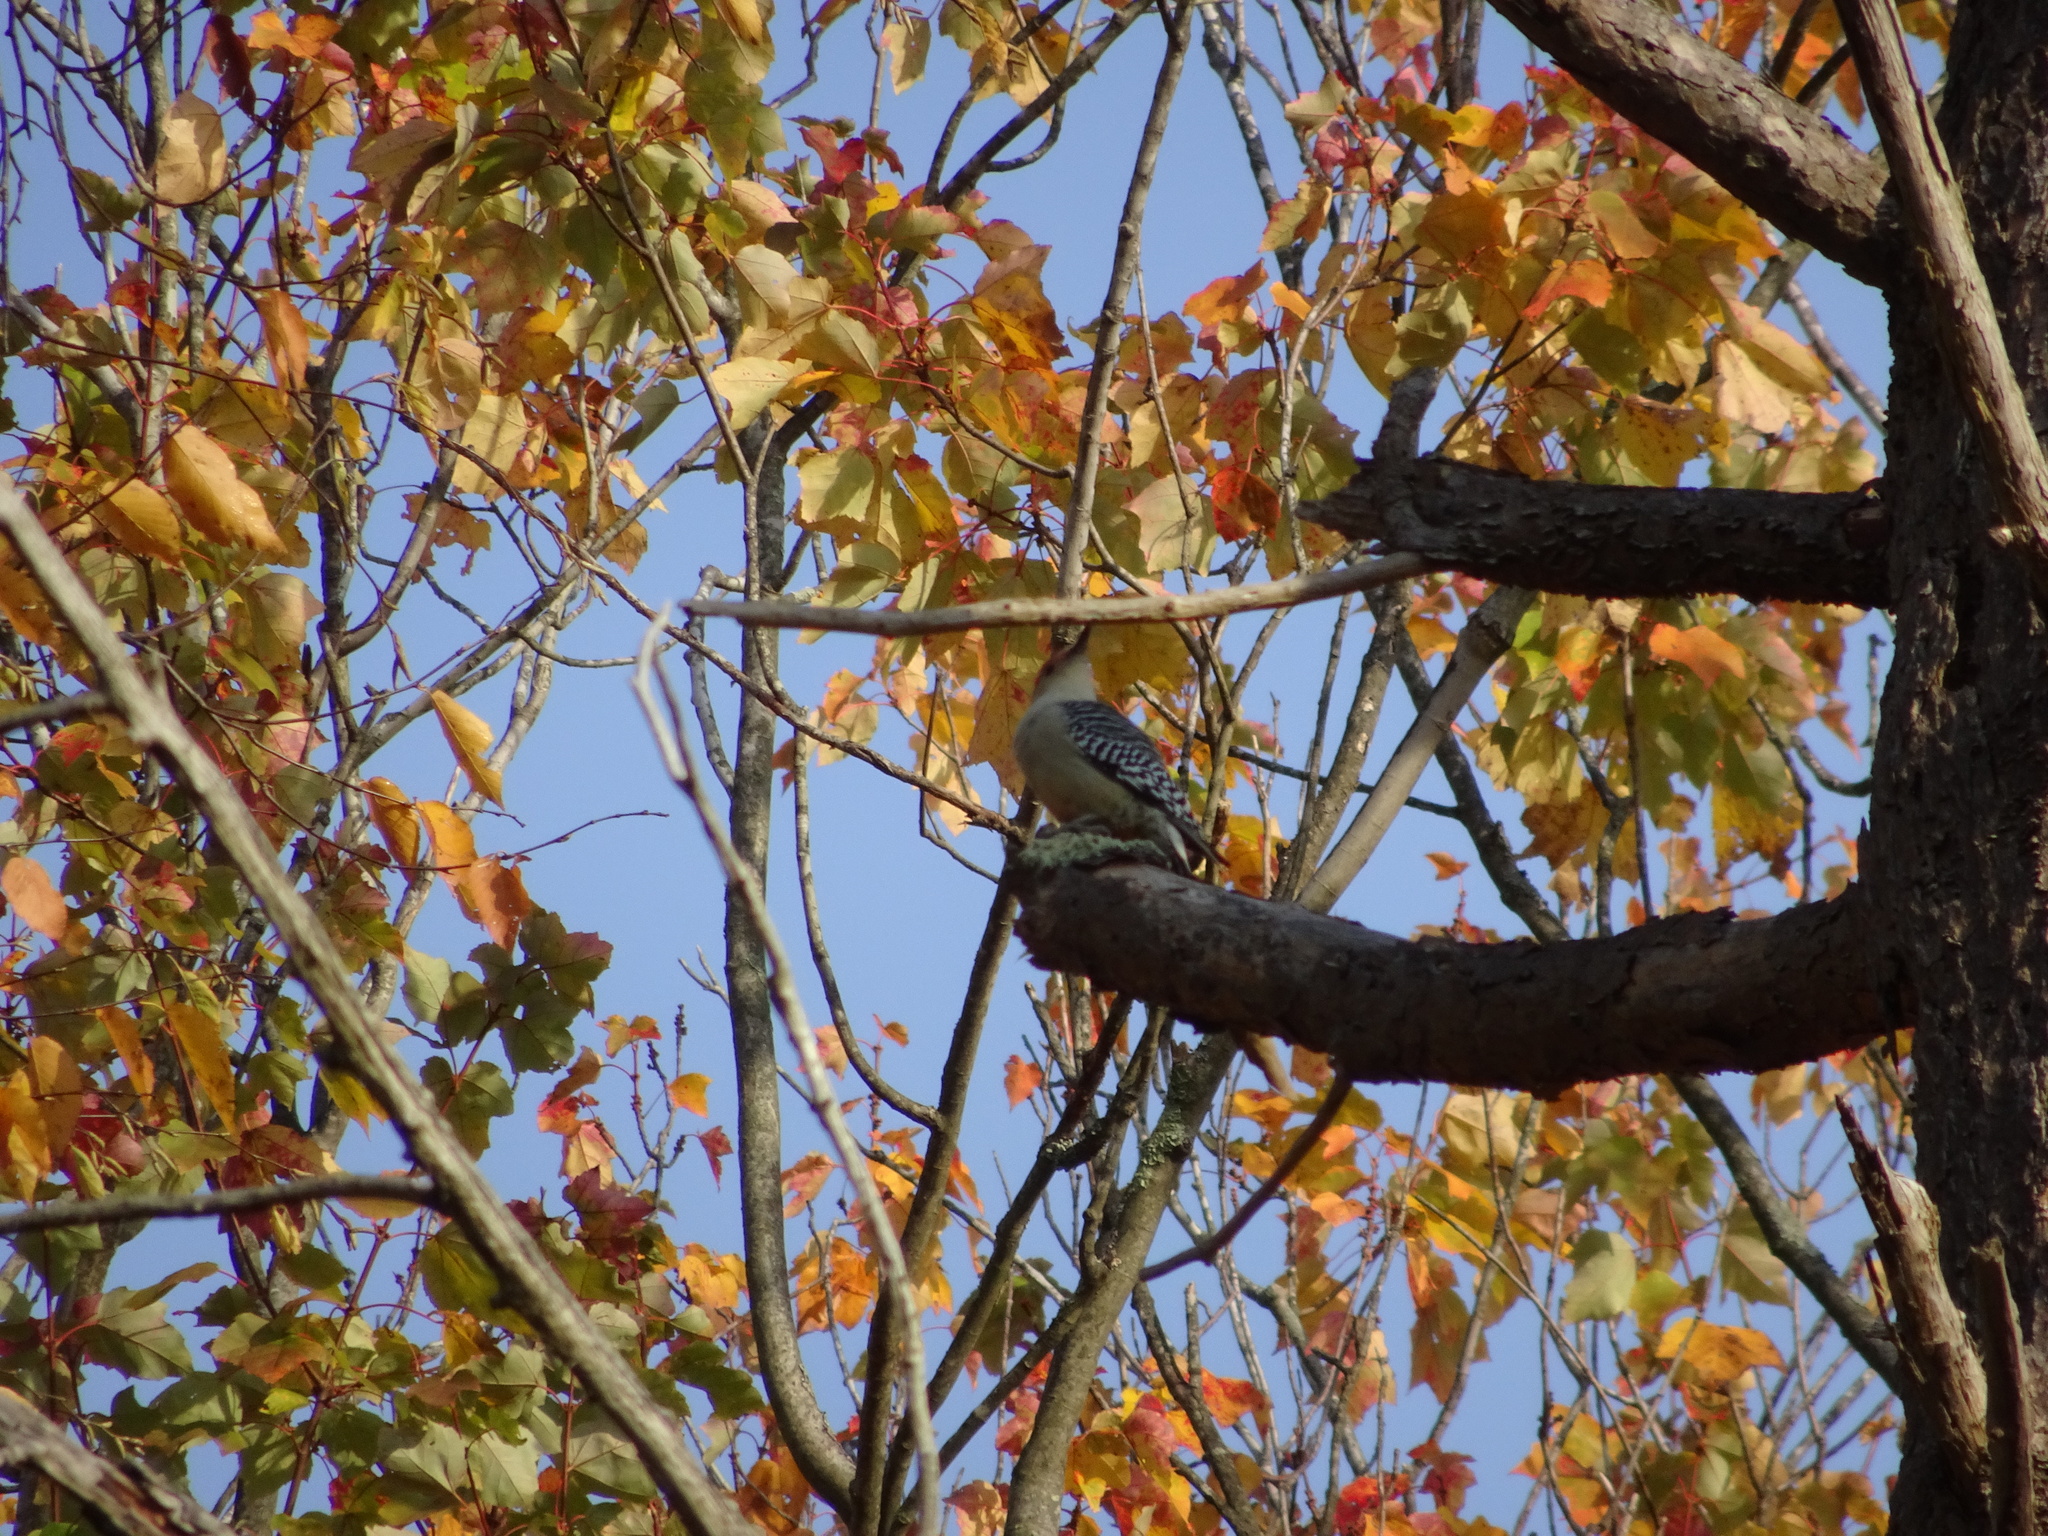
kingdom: Animalia
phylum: Chordata
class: Aves
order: Piciformes
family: Picidae
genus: Melanerpes
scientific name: Melanerpes carolinus
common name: Red-bellied woodpecker
